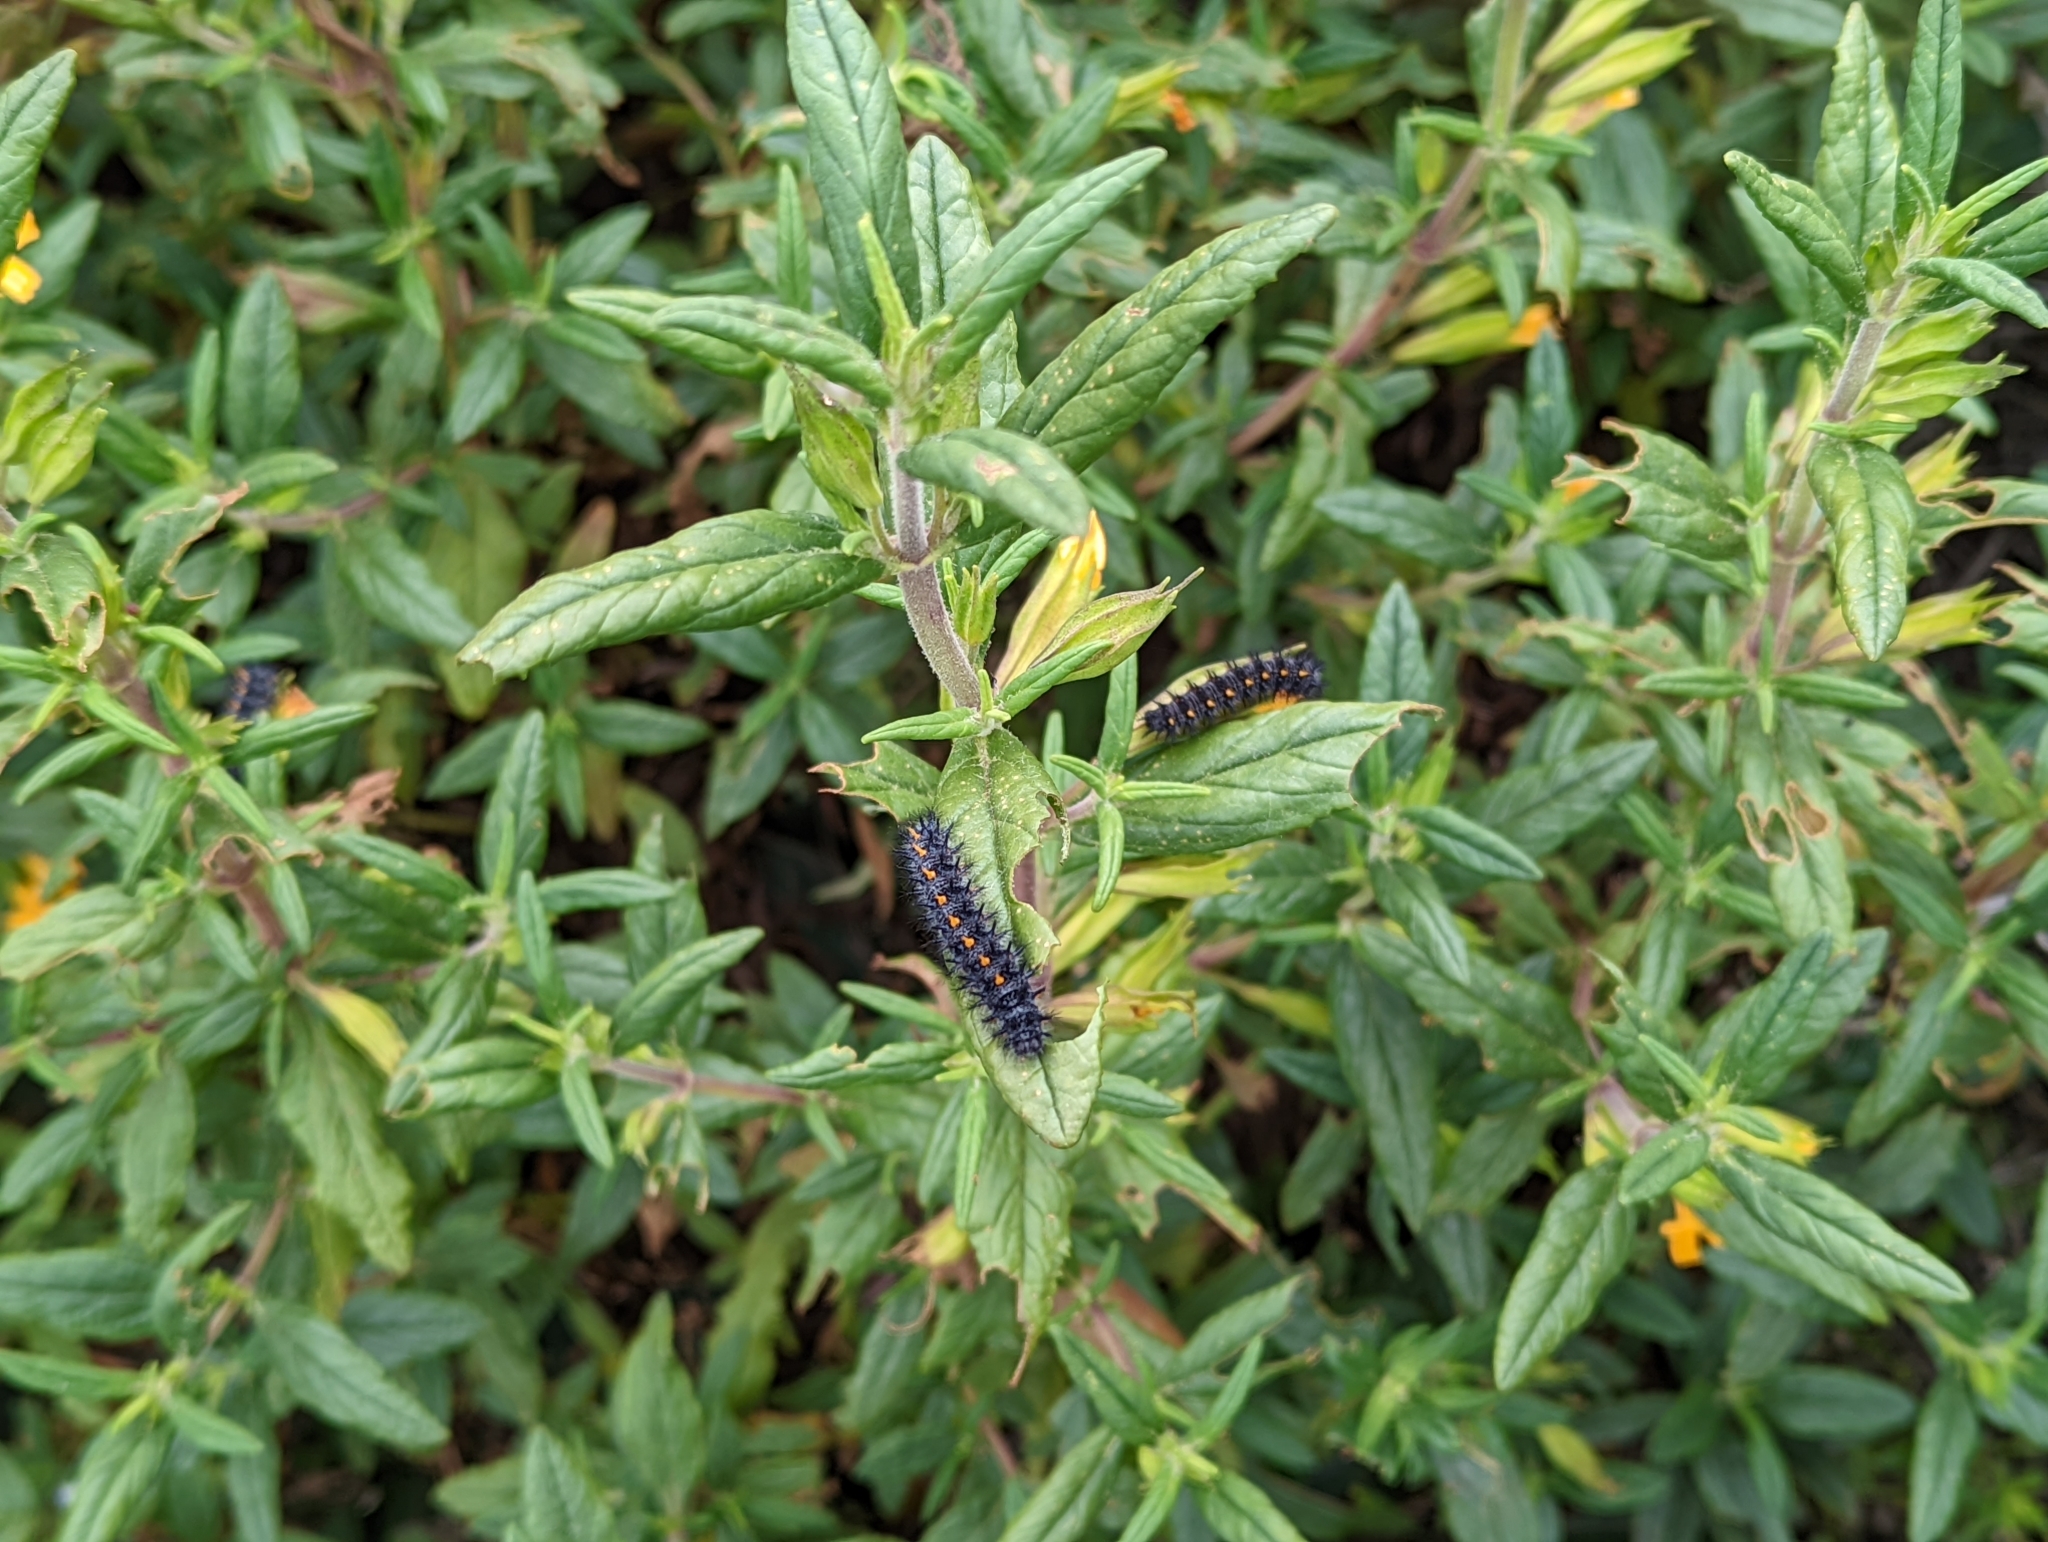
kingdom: Animalia
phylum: Arthropoda
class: Insecta
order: Lepidoptera
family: Nymphalidae
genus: Occidryas
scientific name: Occidryas chalcedona
